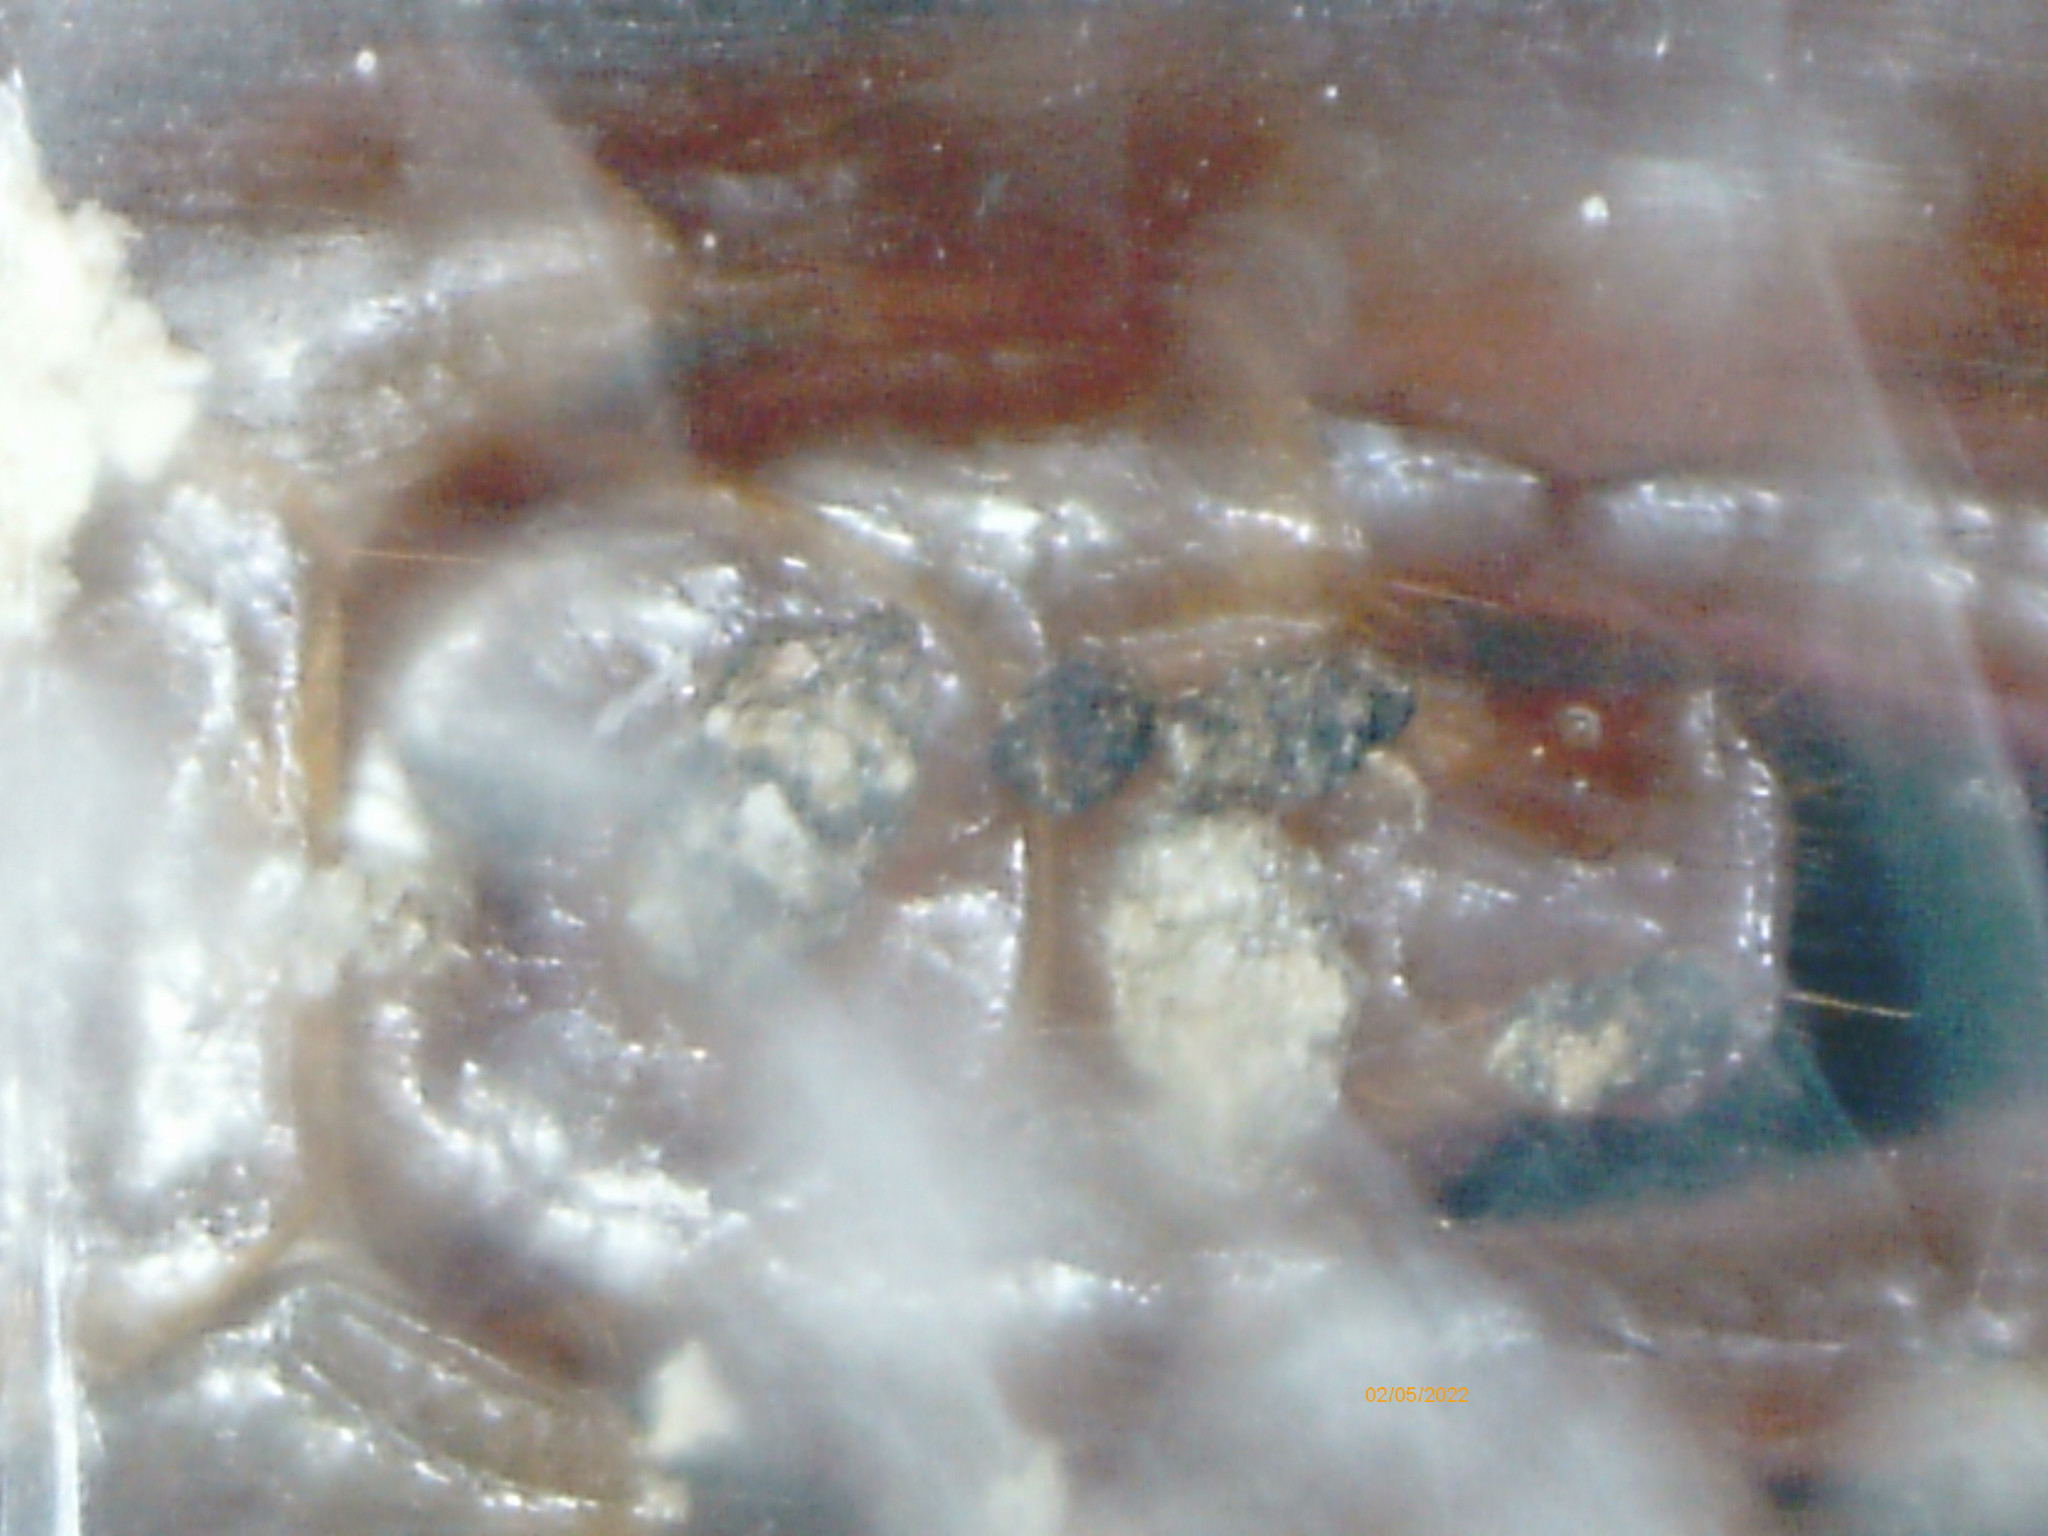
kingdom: Animalia
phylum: Arthropoda
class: Chilopoda
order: Lithobiomorpha
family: Lithobiidae
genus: Lithobius
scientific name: Lithobius forficatus
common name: Centipede
